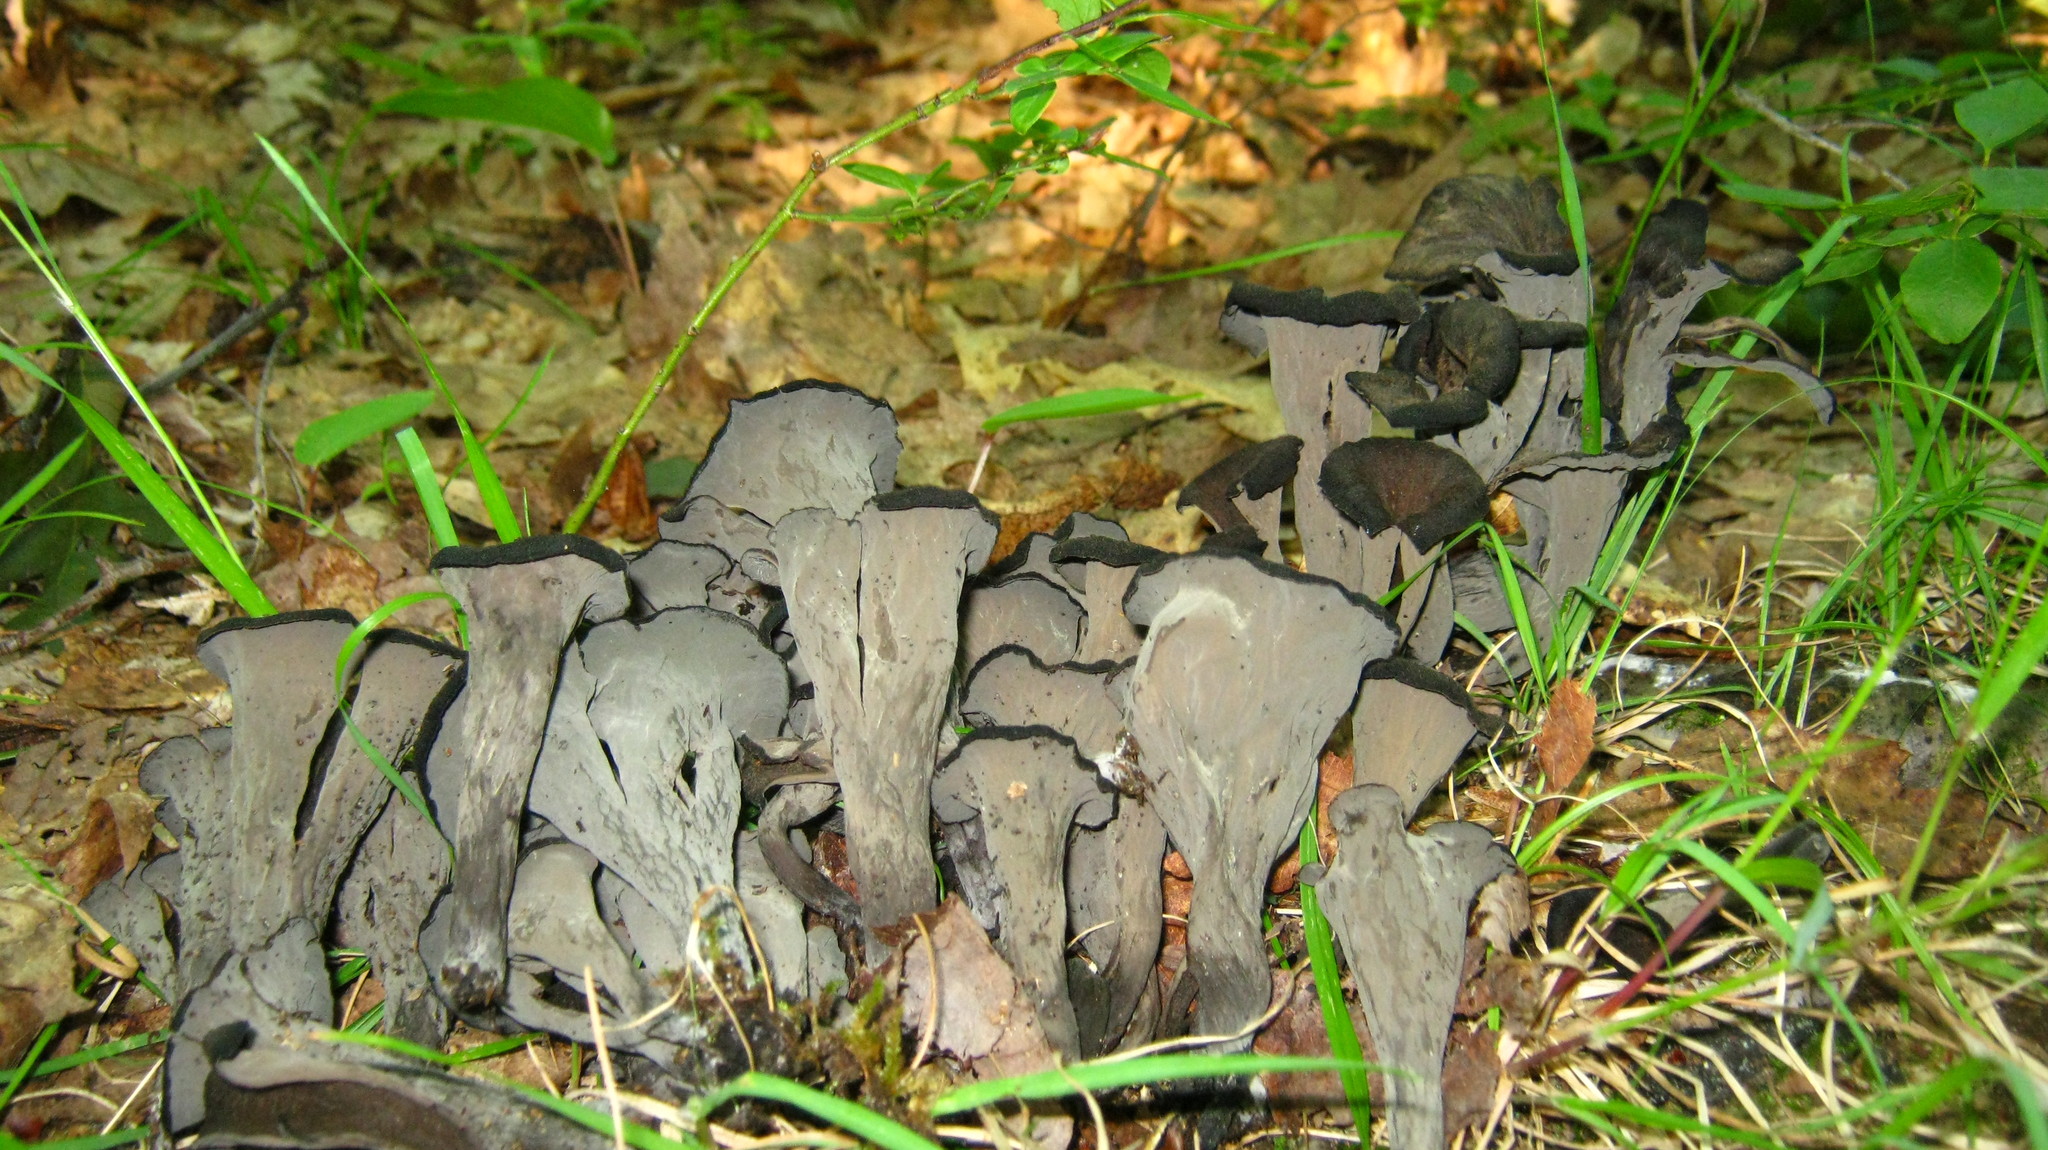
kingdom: Fungi
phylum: Basidiomycota
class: Agaricomycetes
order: Cantharellales
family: Hydnaceae
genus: Craterellus
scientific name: Craterellus cornucopioides
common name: Horn of plenty
